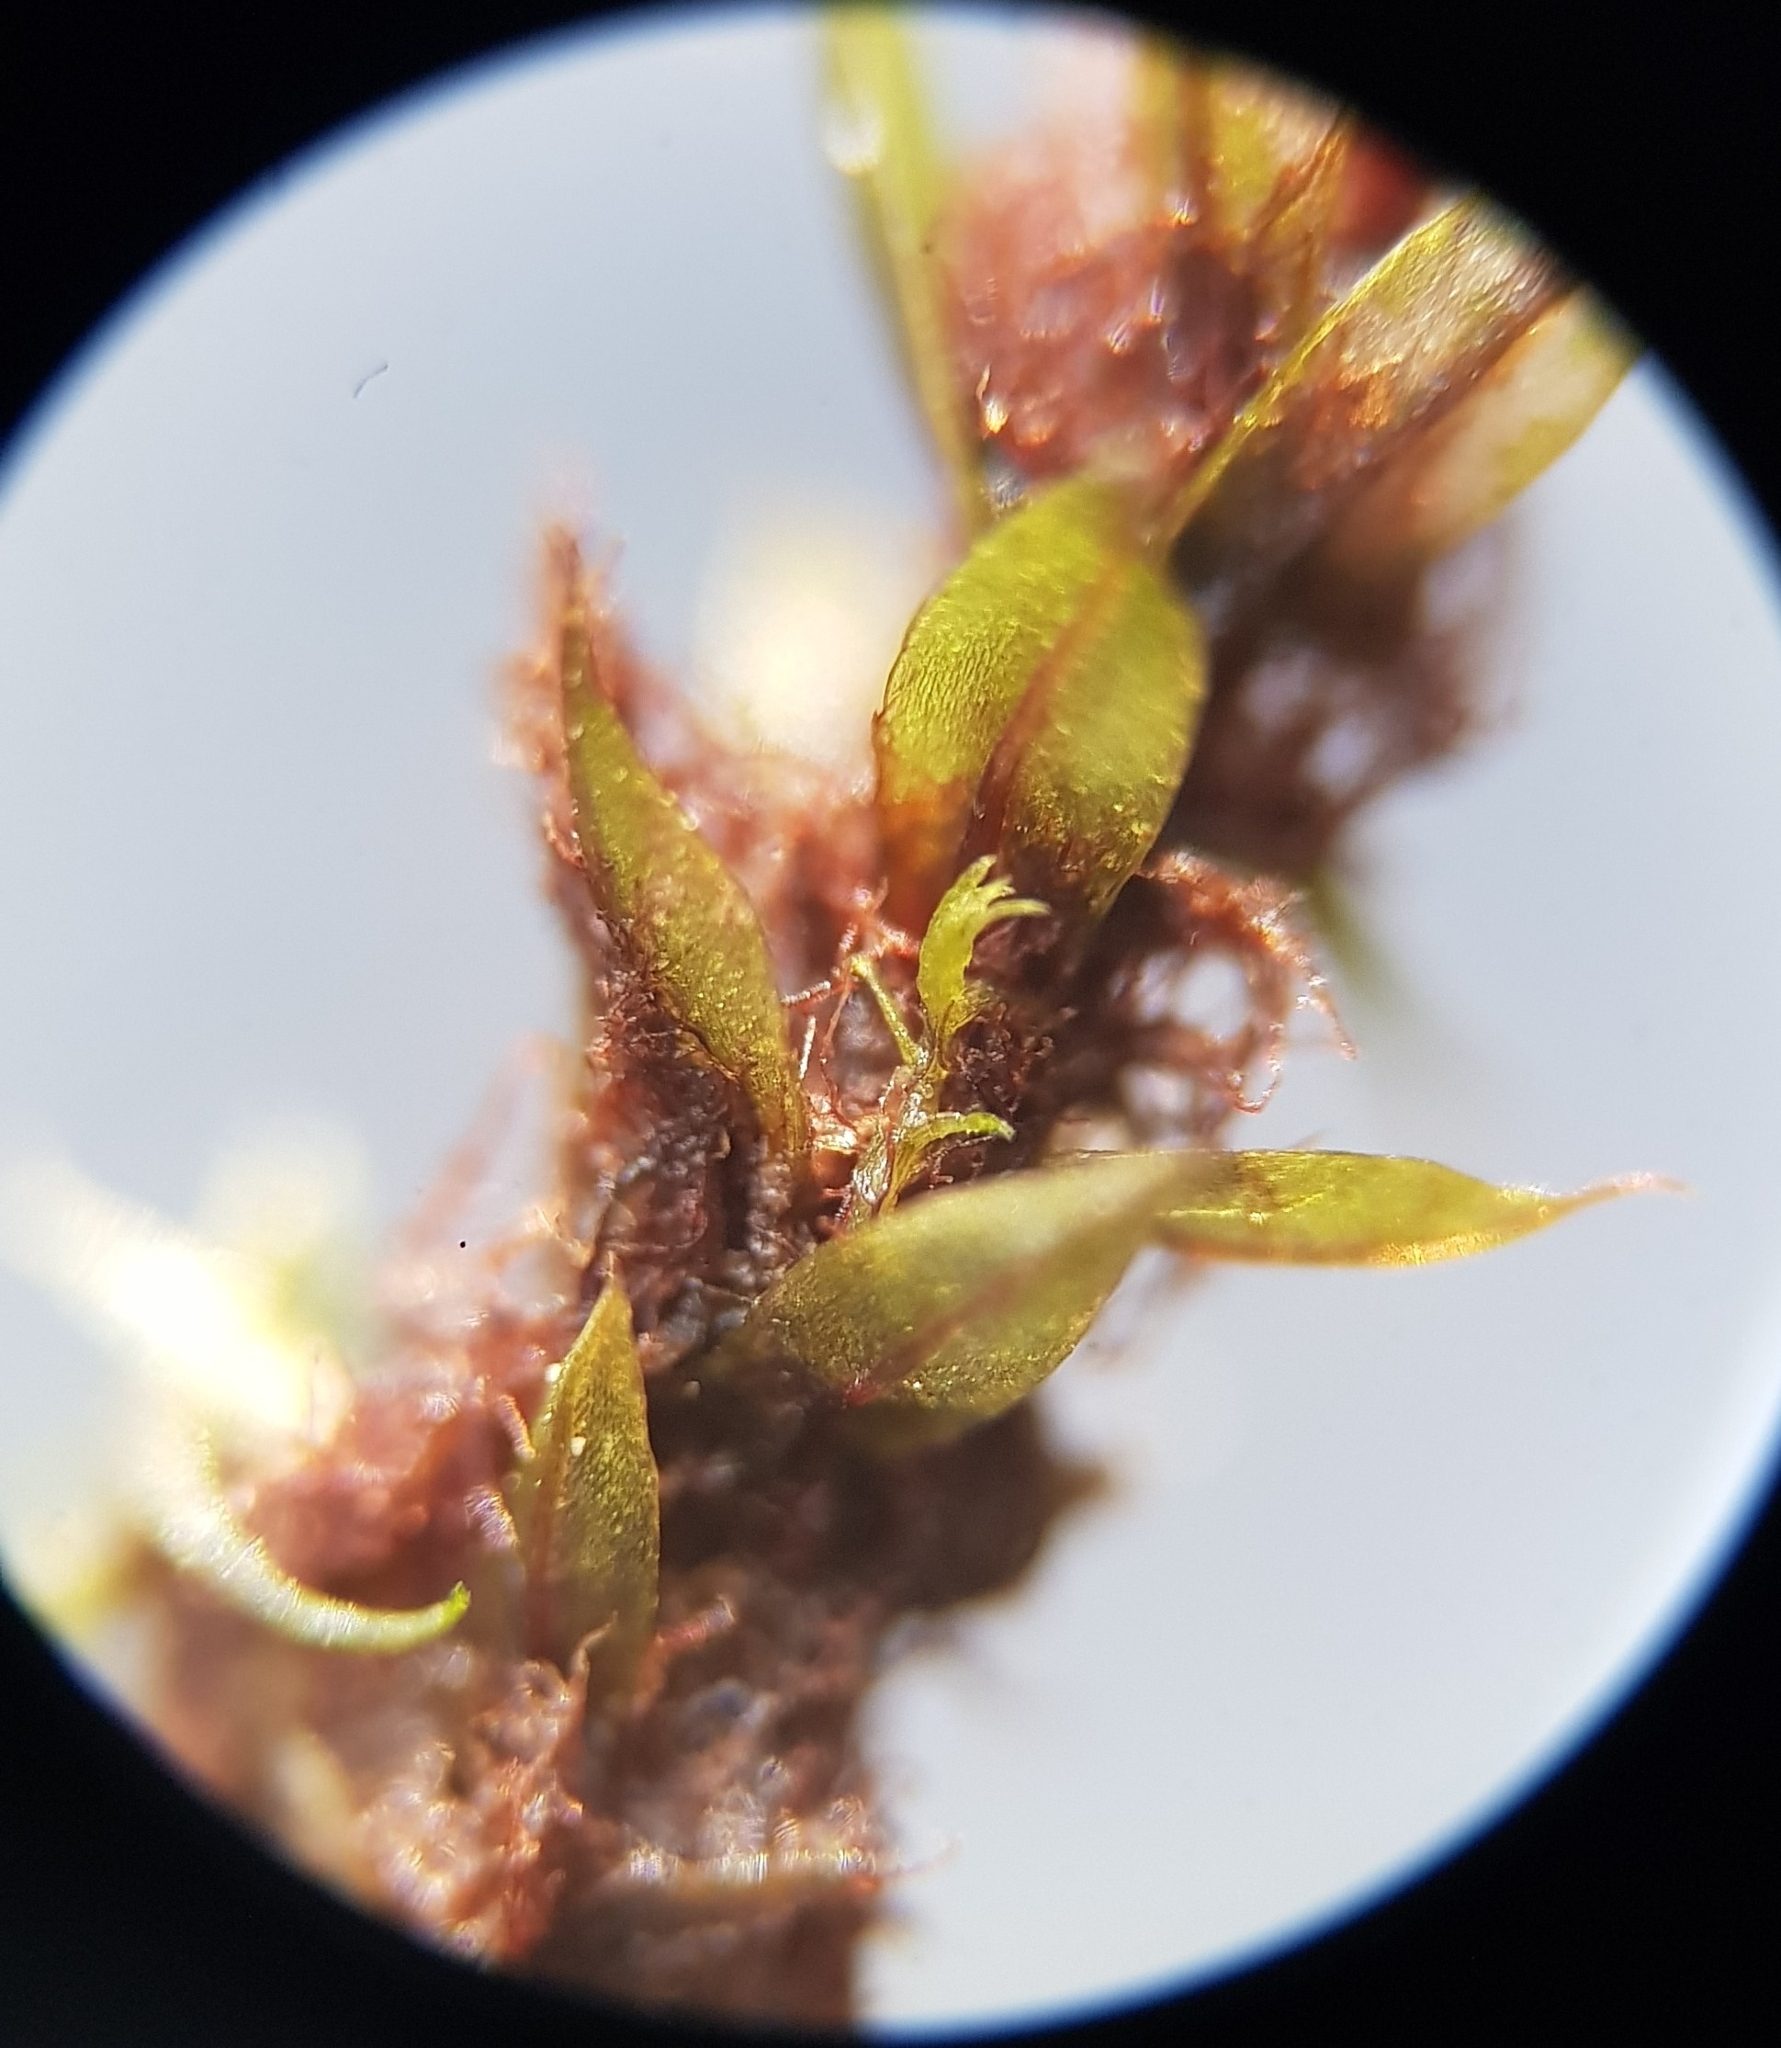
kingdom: Plantae
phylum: Bryophyta
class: Bryopsida
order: Bryales
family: Bryaceae
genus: Ptychostomum
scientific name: Ptychostomum pseudotriquetrum
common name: Long-leaved thread moss
